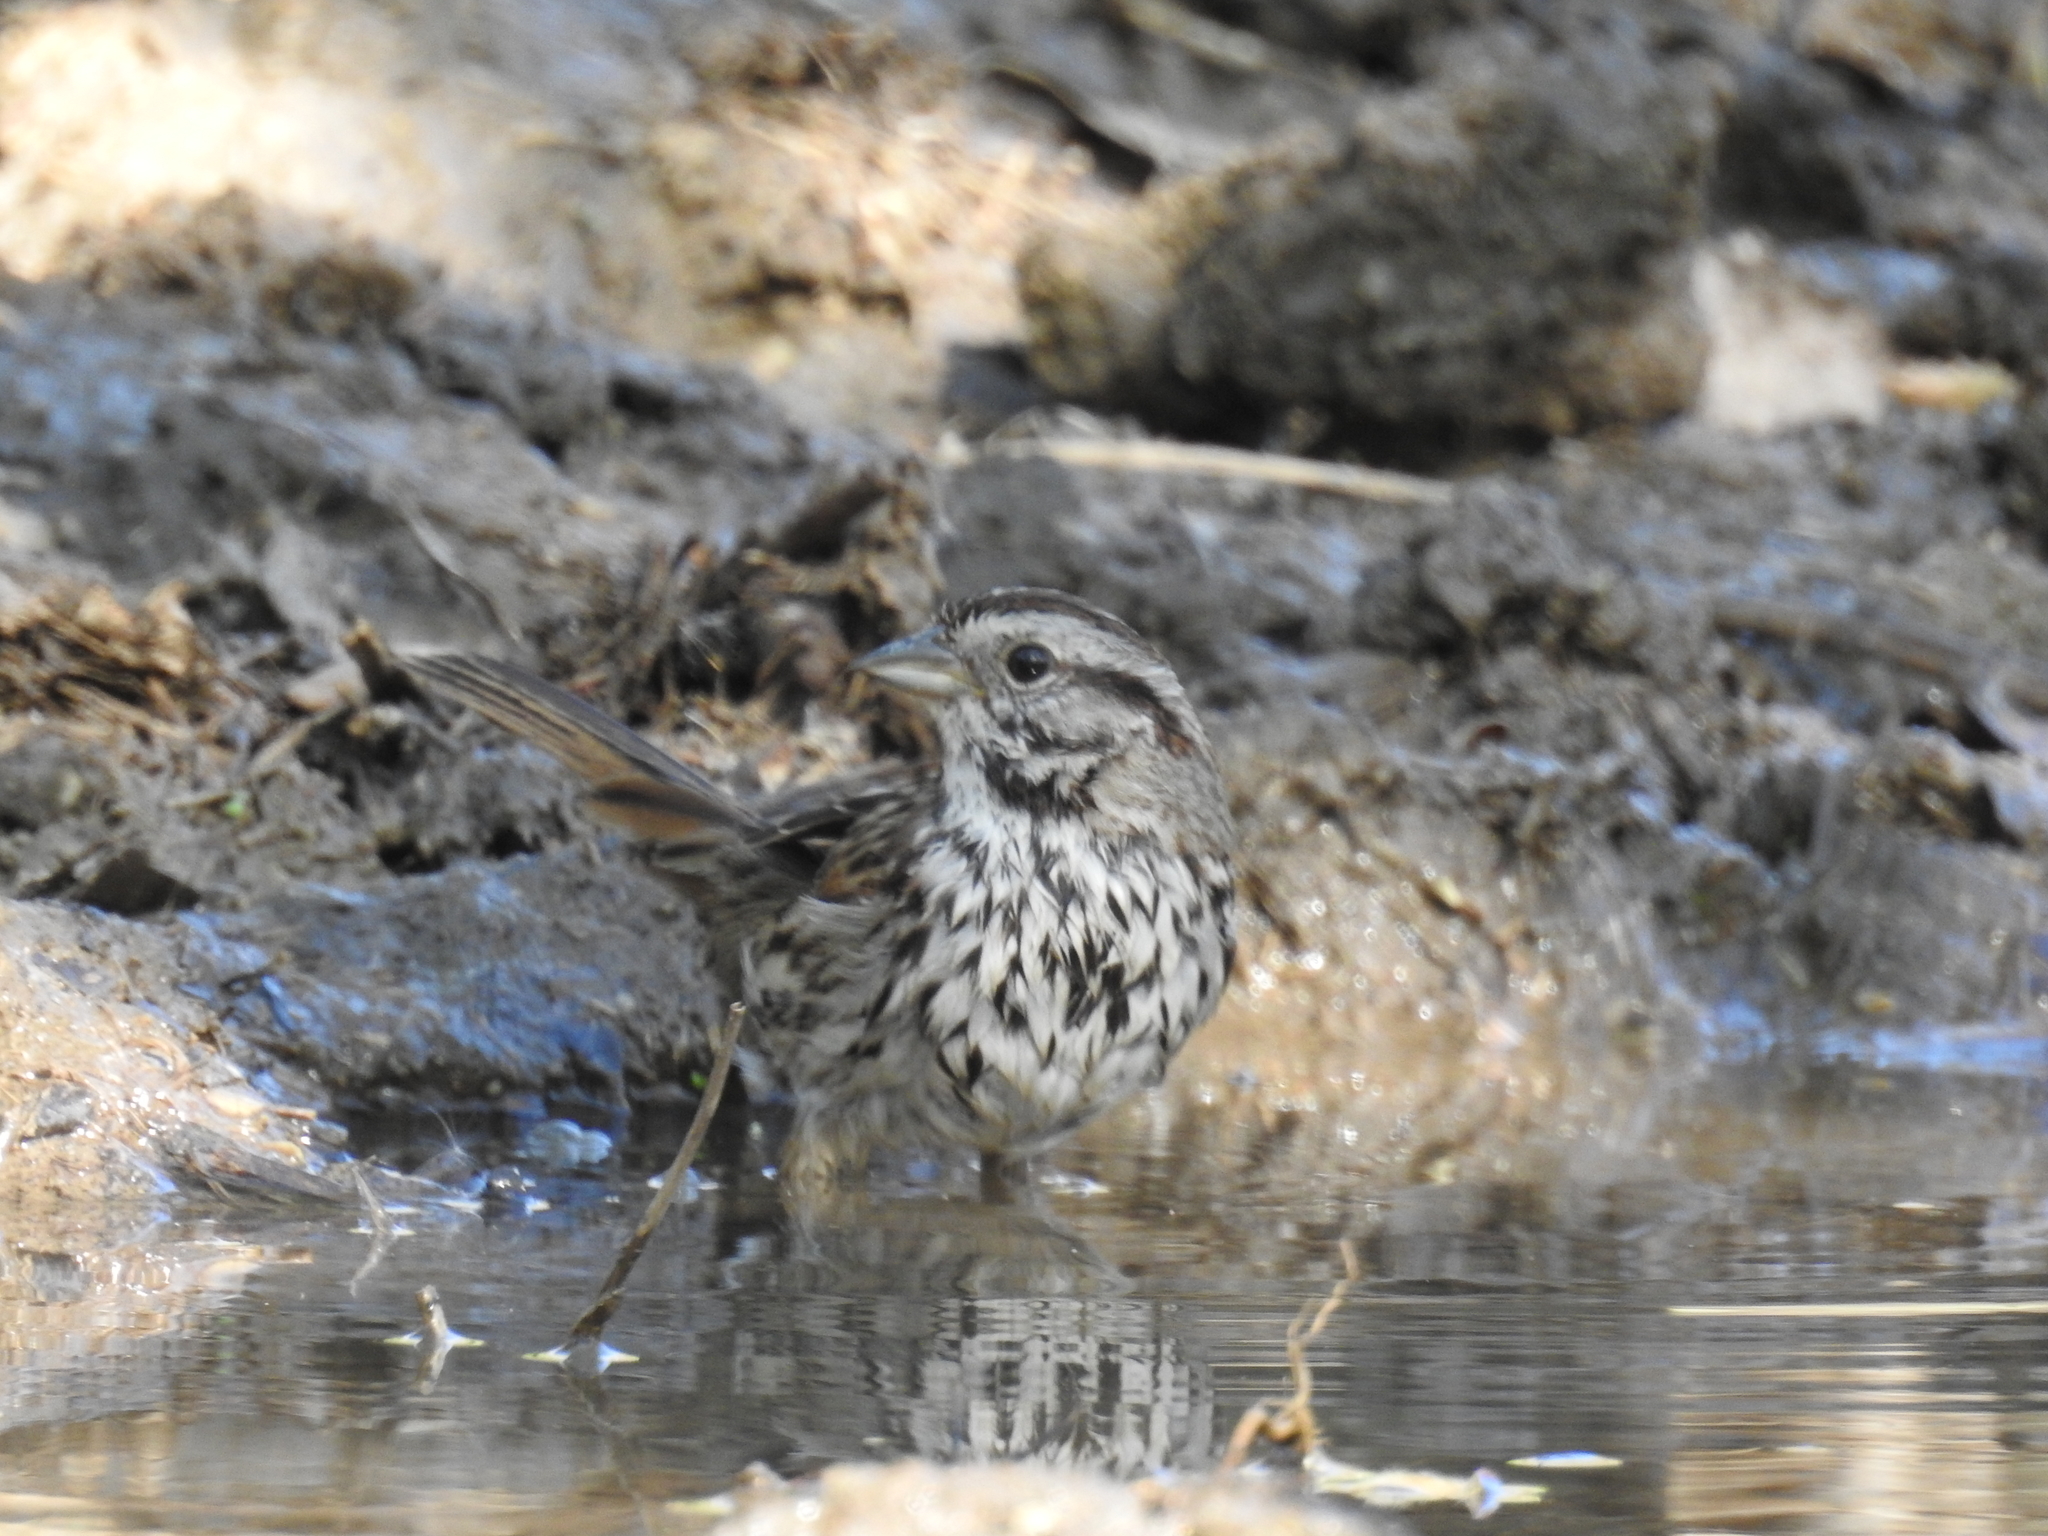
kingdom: Animalia
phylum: Chordata
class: Aves
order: Passeriformes
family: Passerellidae
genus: Melospiza
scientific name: Melospiza melodia
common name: Song sparrow
